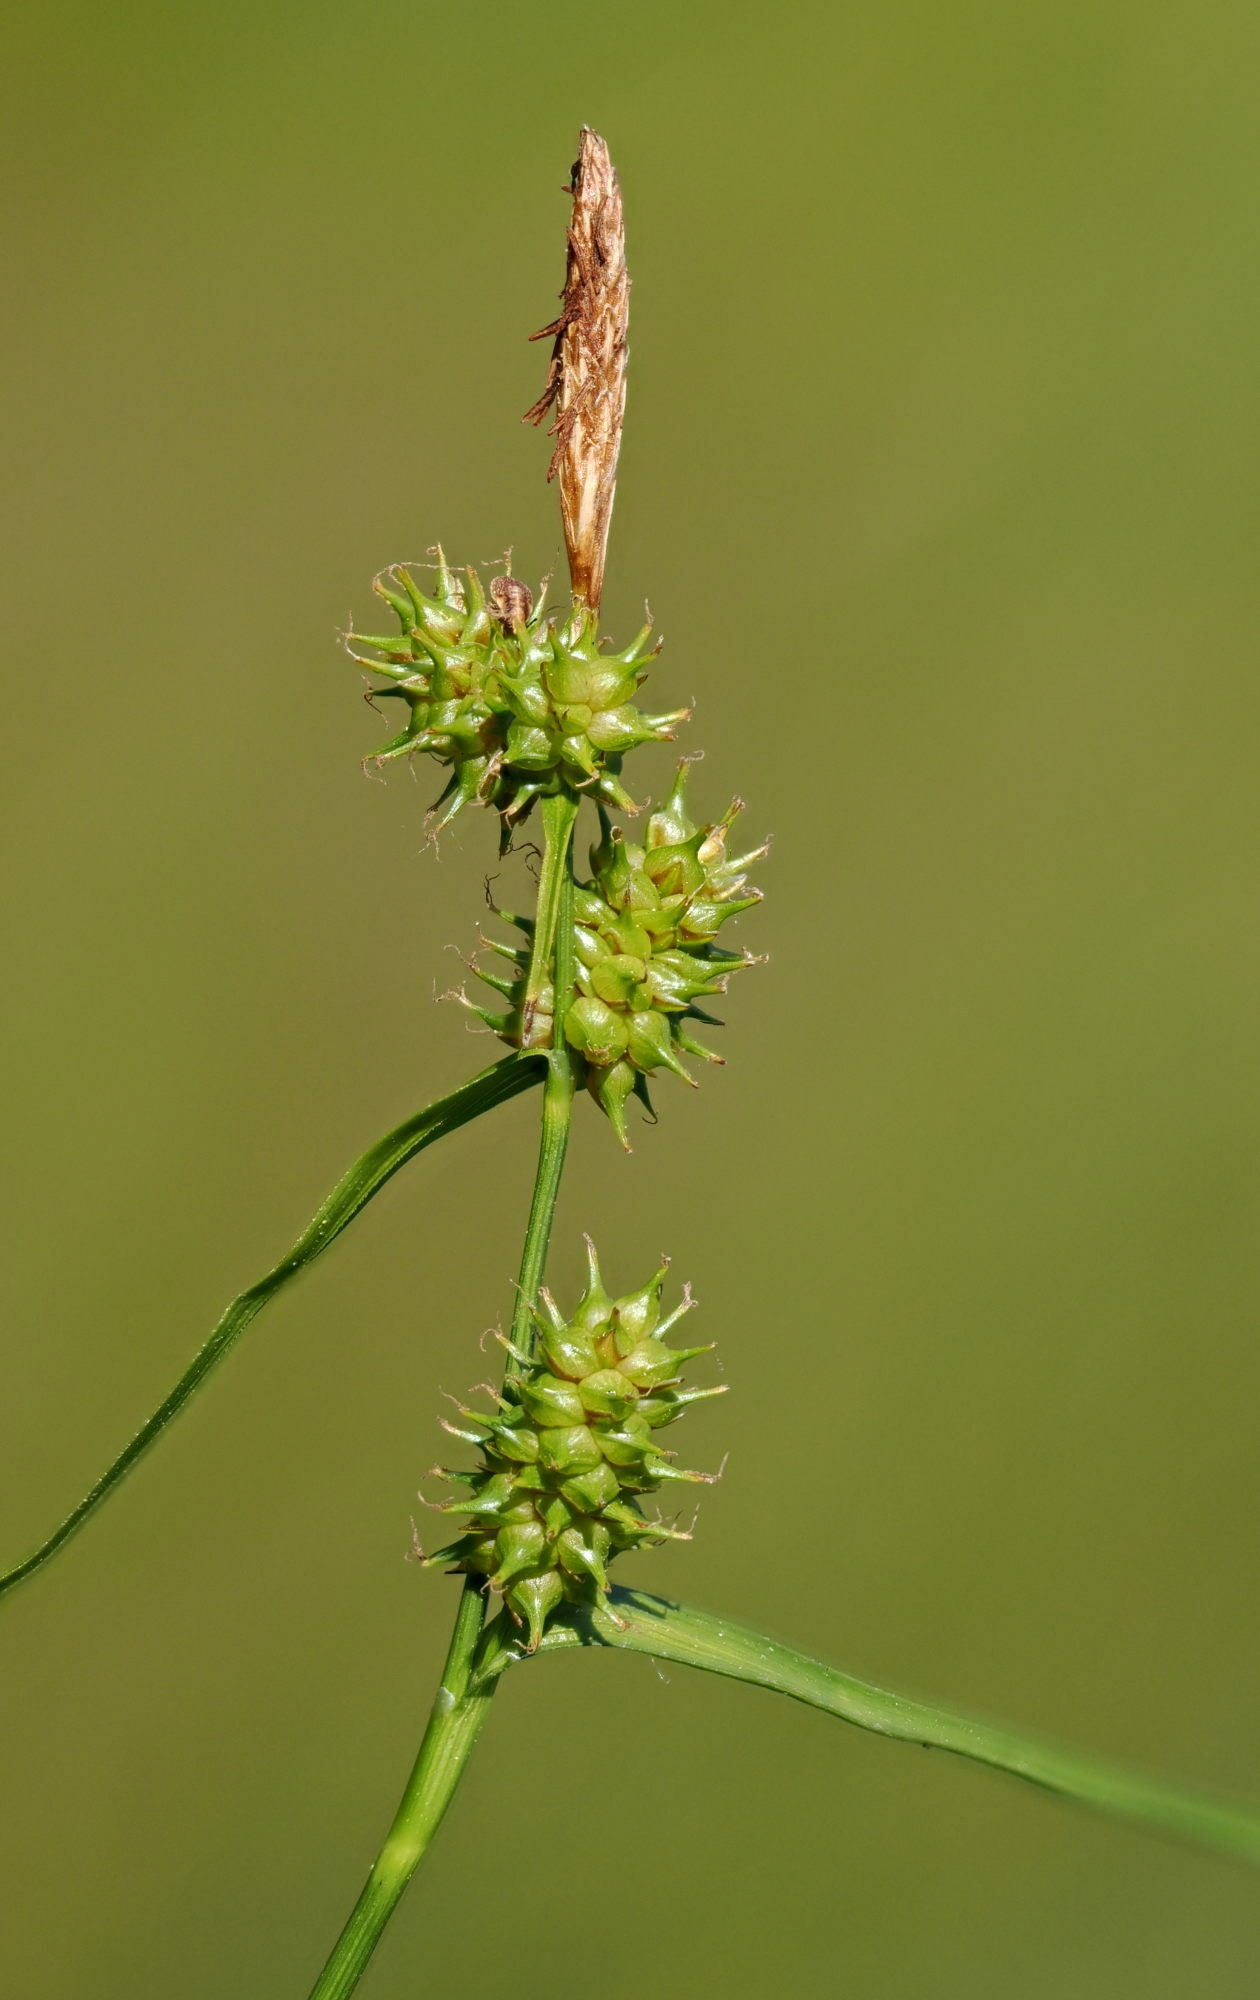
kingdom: Plantae
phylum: Tracheophyta
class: Liliopsida
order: Poales
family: Cyperaceae
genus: Carex
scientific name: Carex demissa
